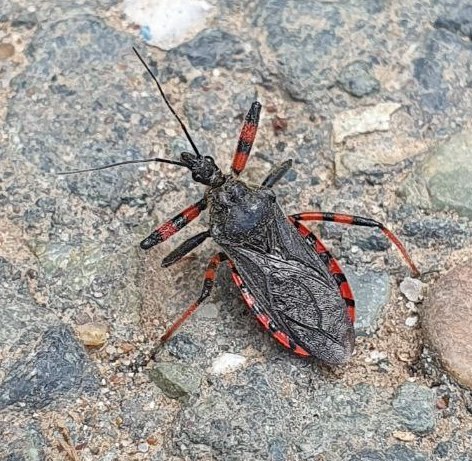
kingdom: Animalia
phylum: Arthropoda
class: Insecta
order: Hemiptera
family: Reduviidae
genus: Rhynocoris
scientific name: Rhynocoris annulatus
